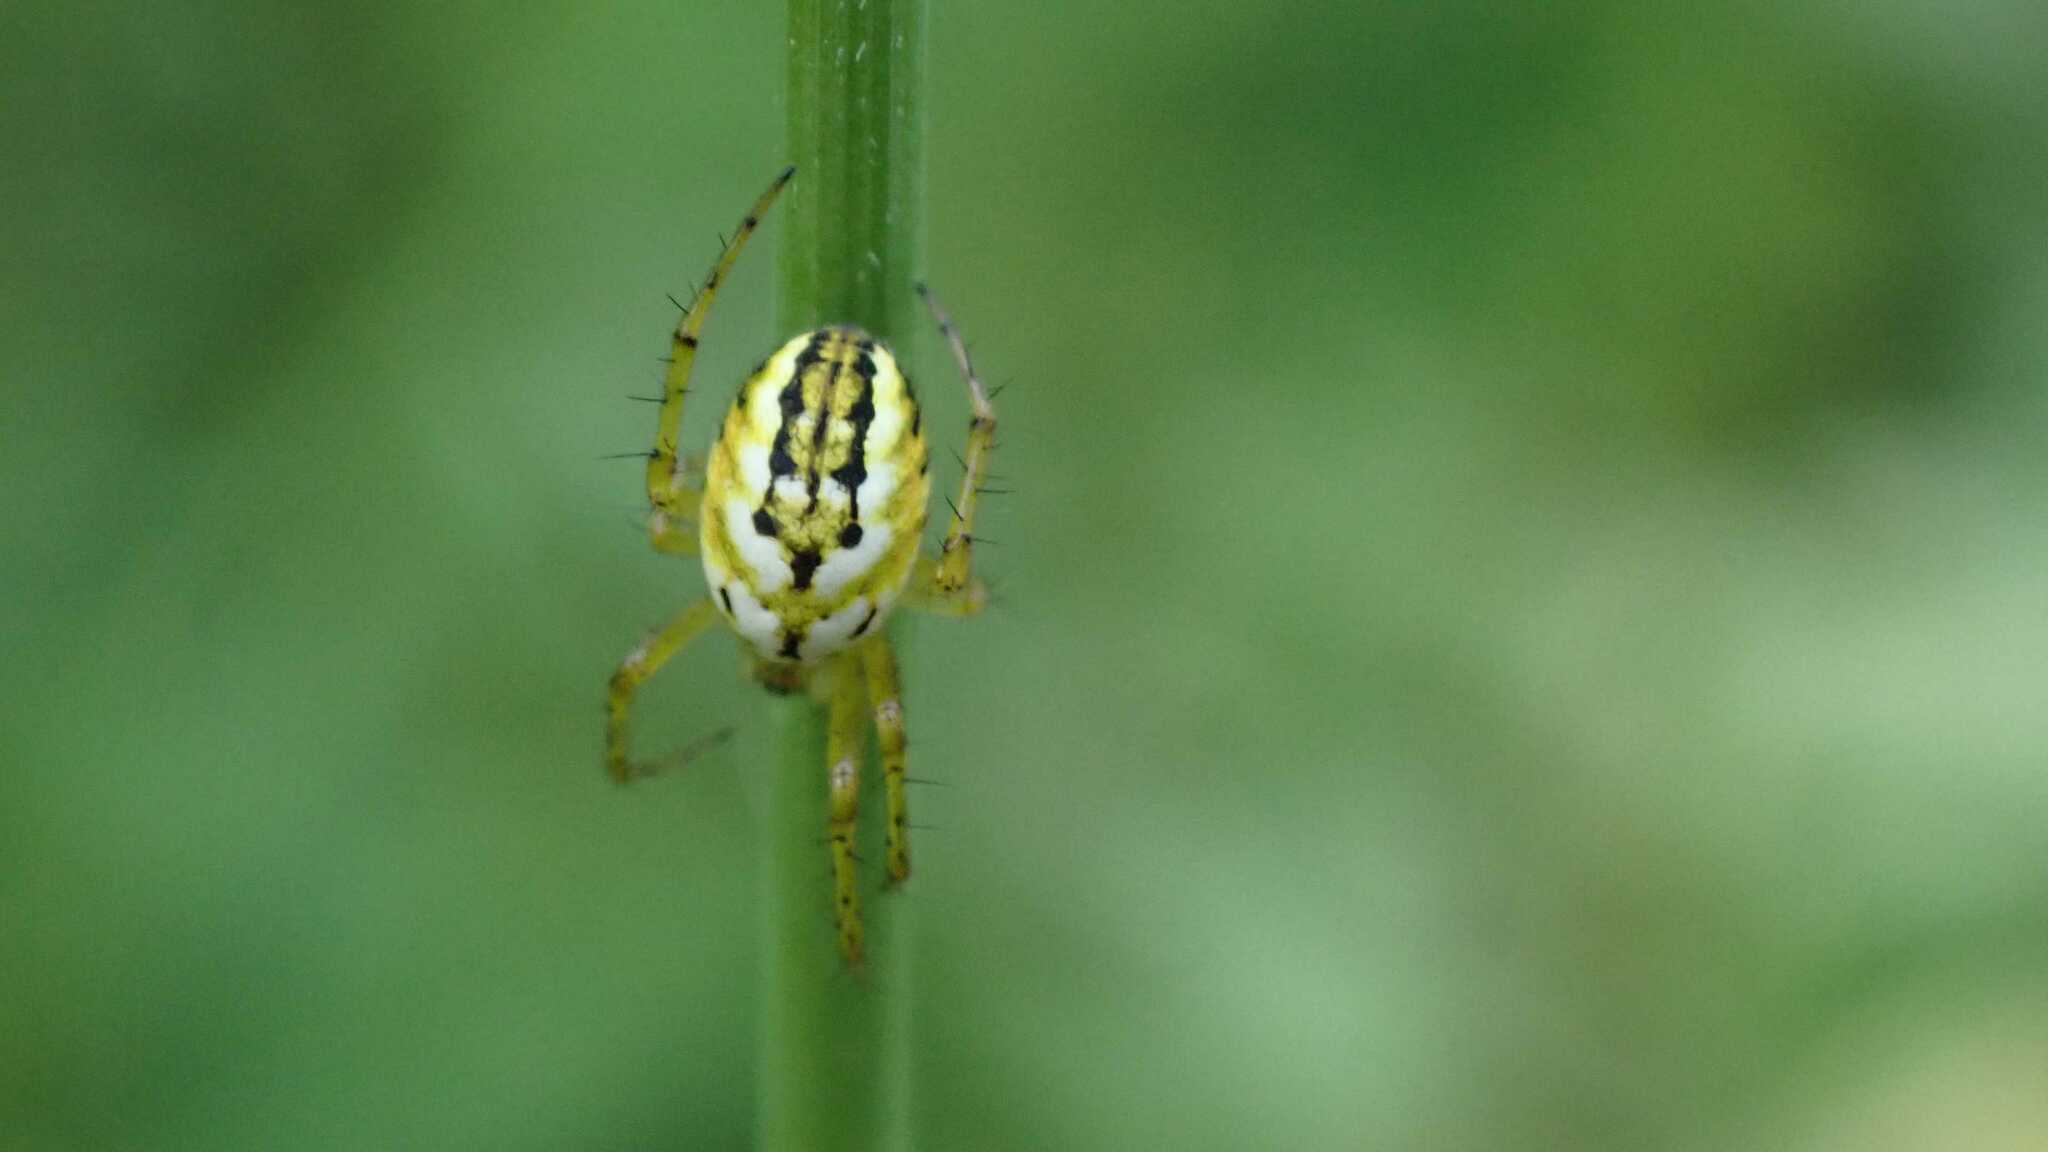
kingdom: Animalia
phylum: Arthropoda
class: Arachnida
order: Araneae
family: Araneidae
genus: Mangora
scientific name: Mangora acalypha
